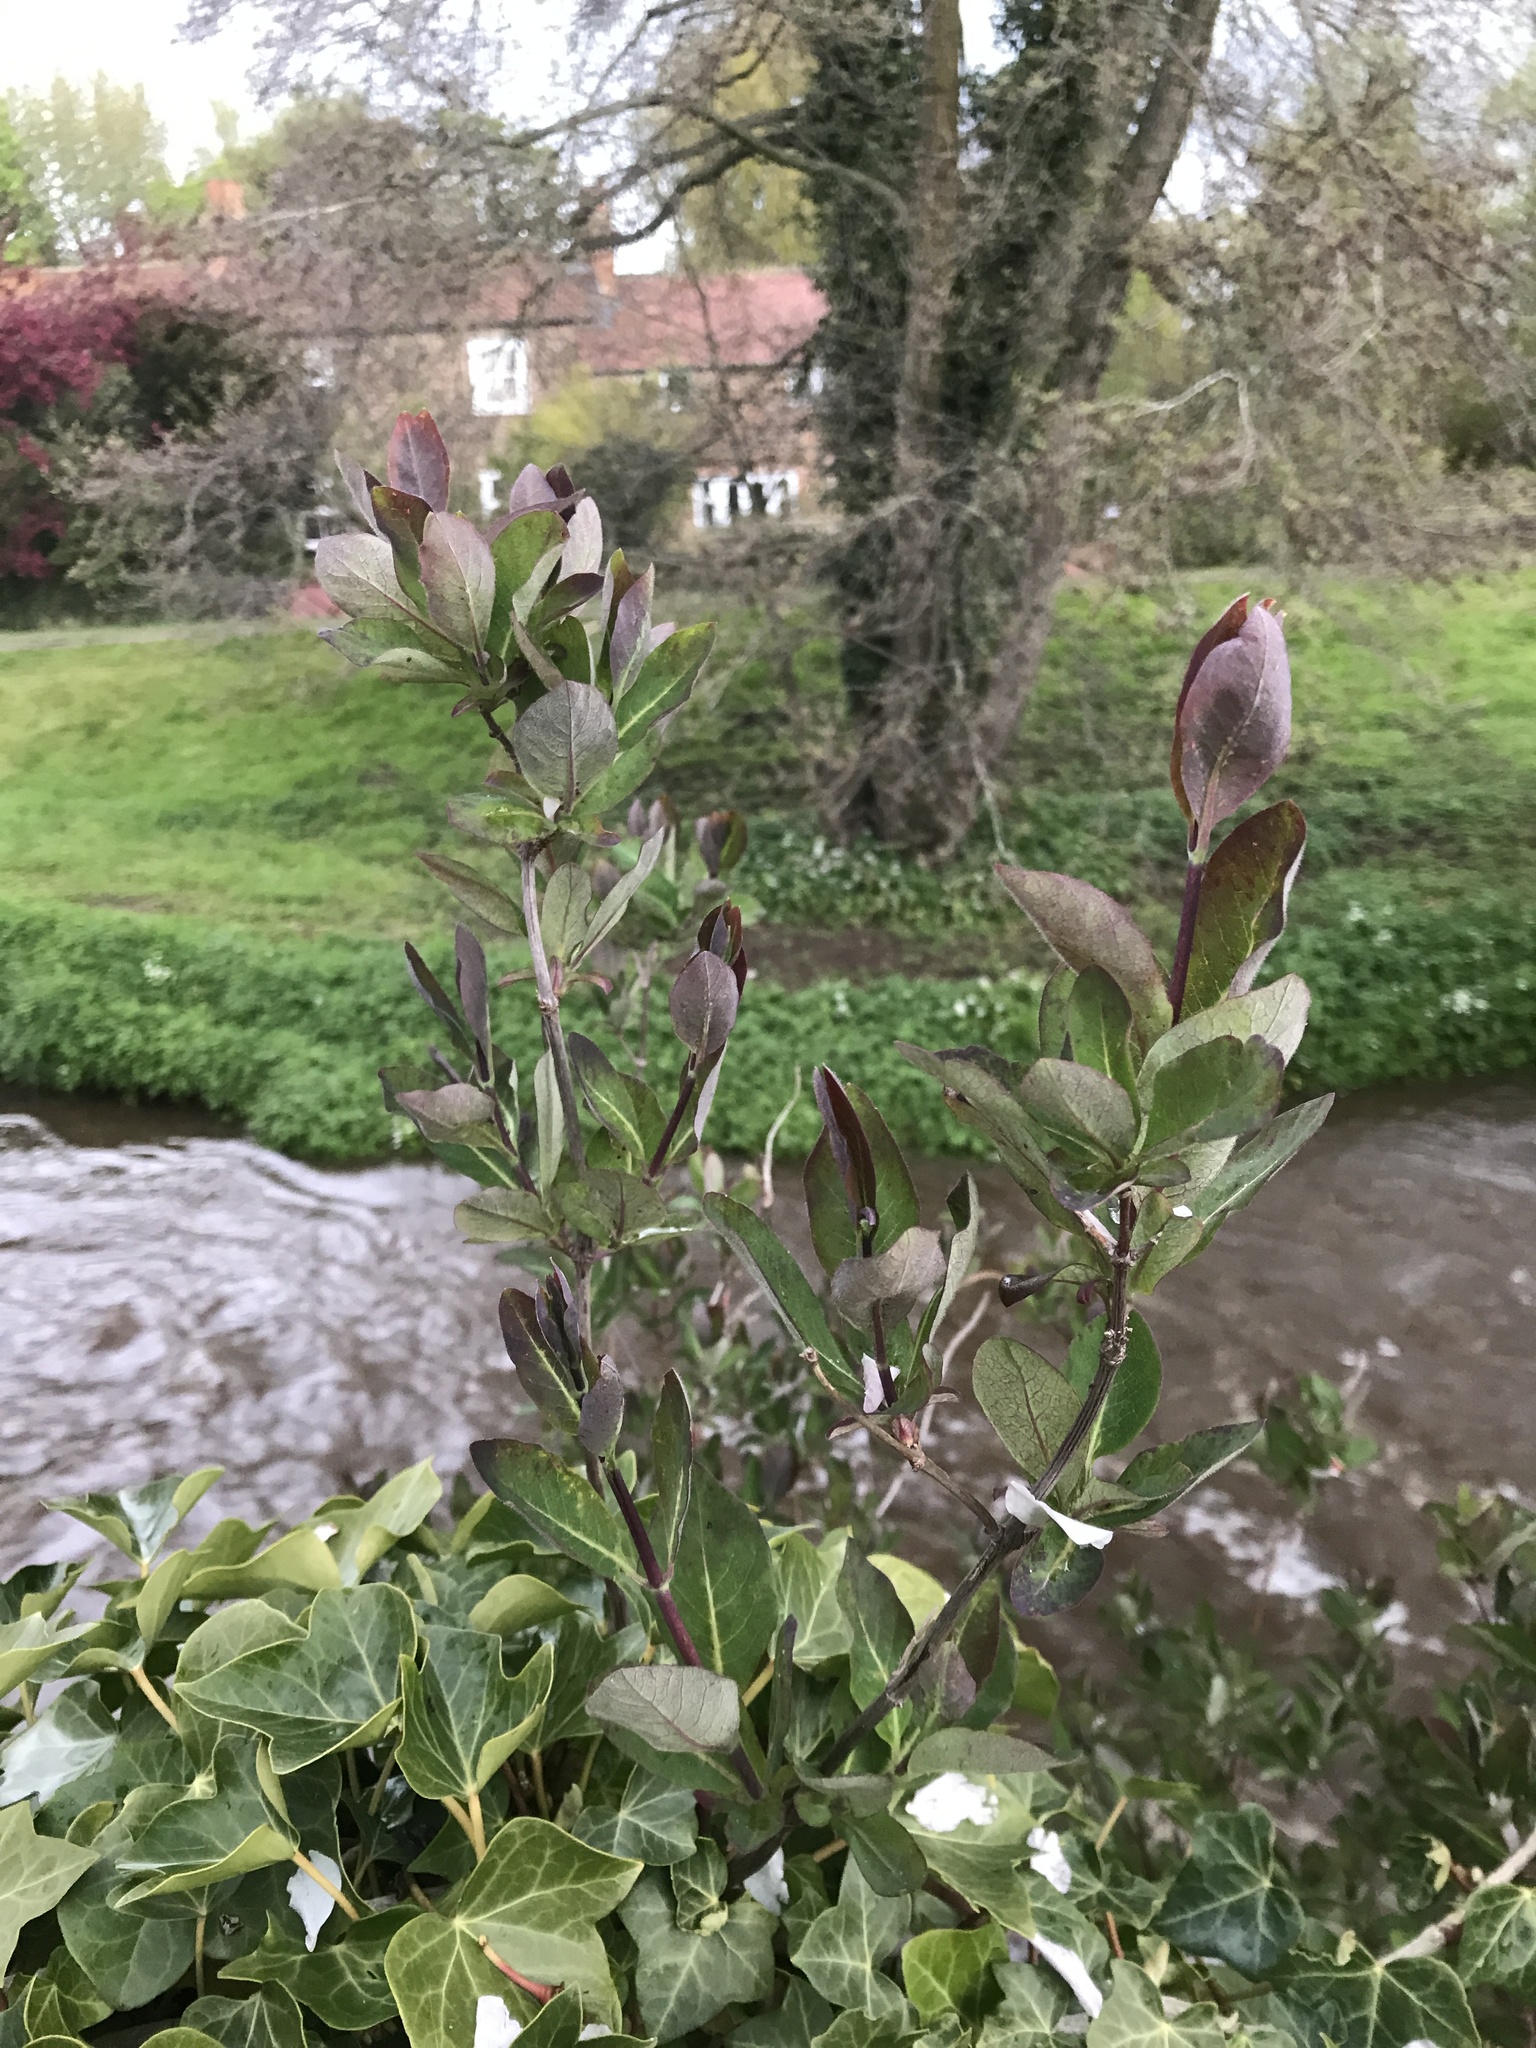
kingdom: Plantae
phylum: Tracheophyta
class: Magnoliopsida
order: Dipsacales
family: Caprifoliaceae
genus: Lonicera
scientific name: Lonicera periclymenum
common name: European honeysuckle
